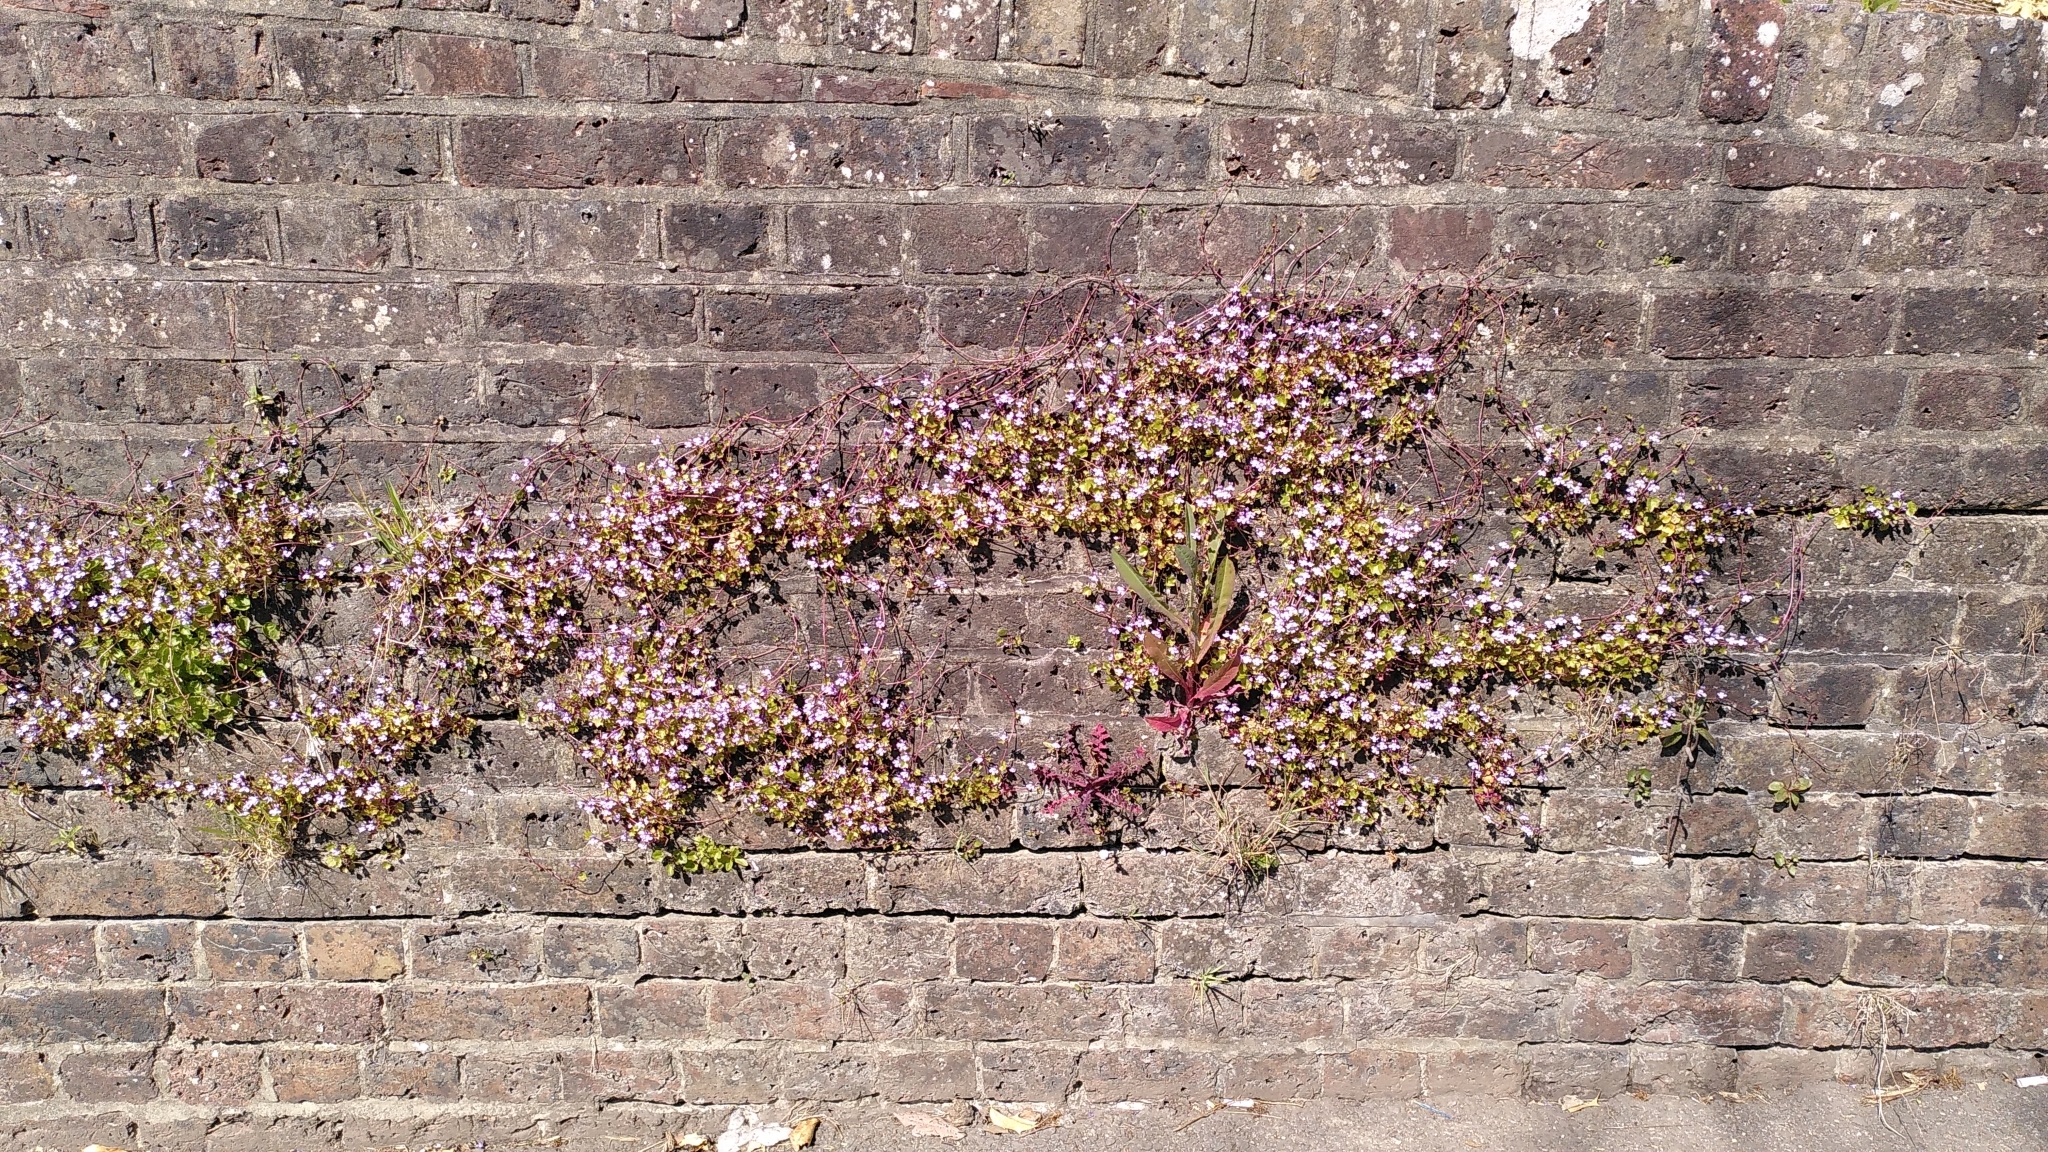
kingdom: Plantae
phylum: Tracheophyta
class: Magnoliopsida
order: Lamiales
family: Plantaginaceae
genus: Cymbalaria
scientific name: Cymbalaria muralis
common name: Ivy-leaved toadflax
